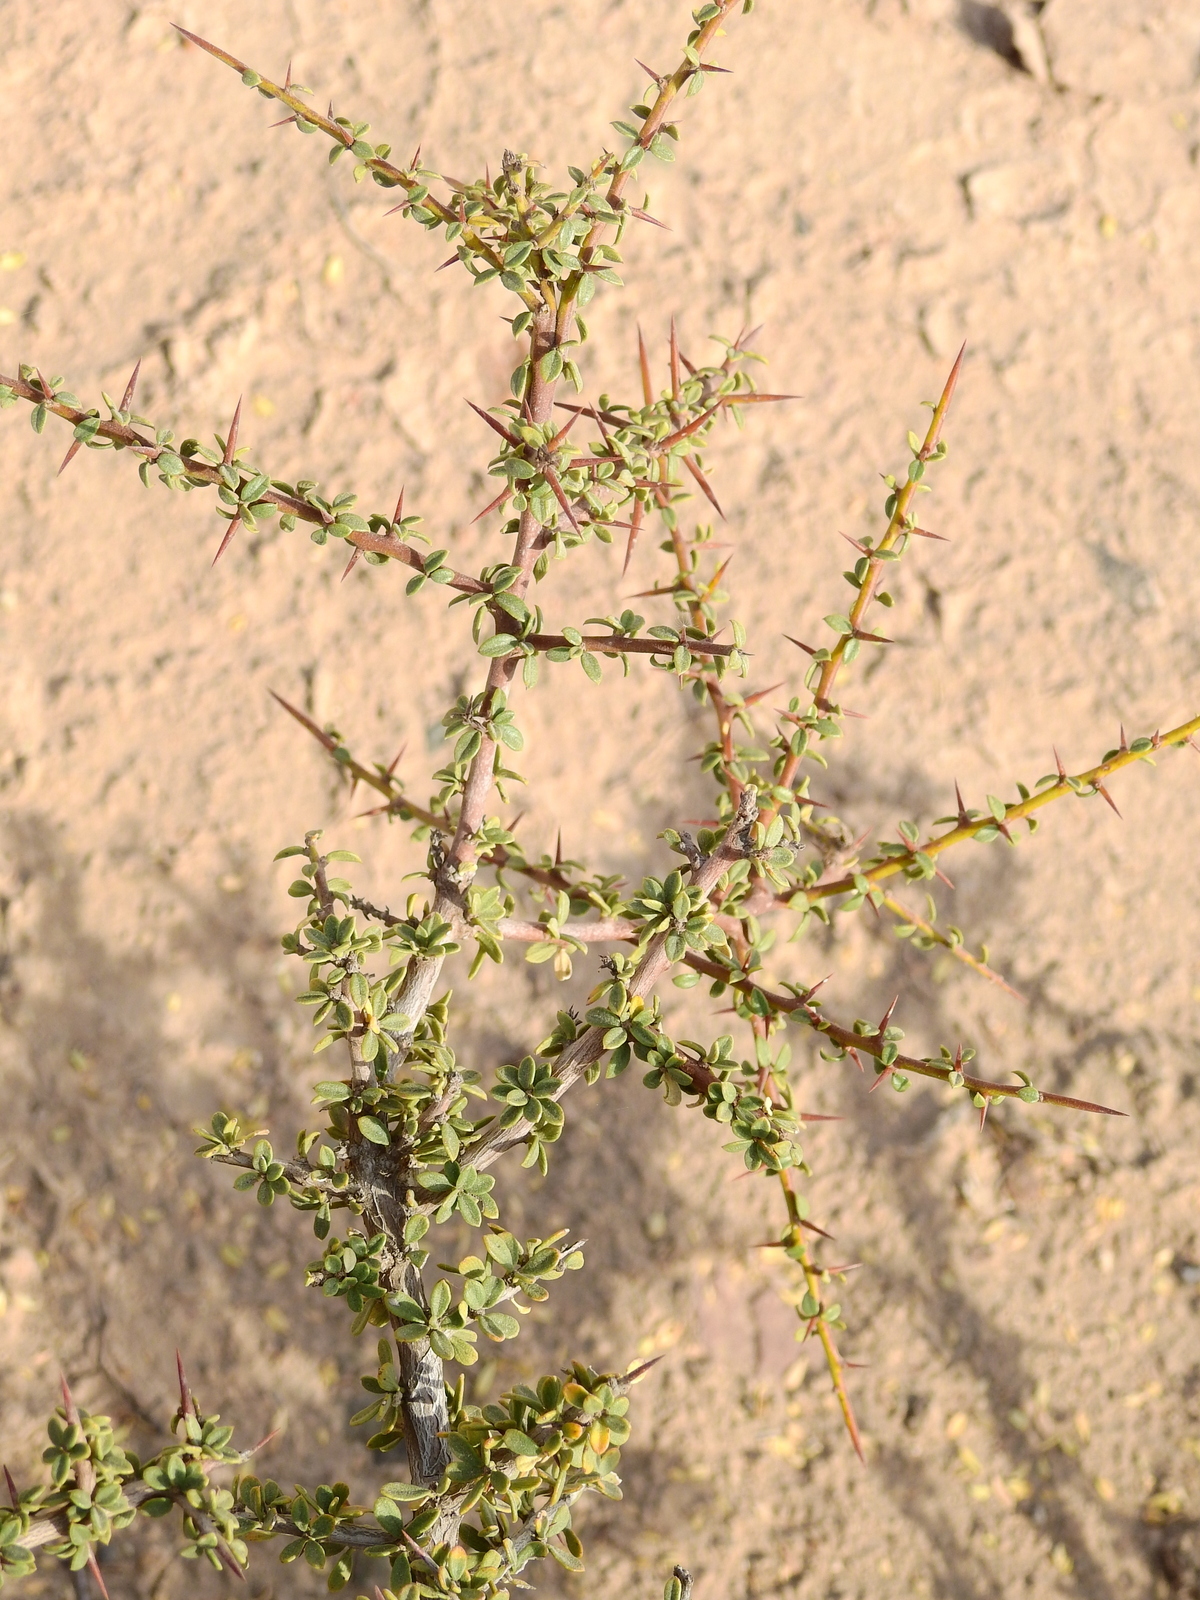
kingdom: Plantae
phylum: Tracheophyta
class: Magnoliopsida
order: Rosales
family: Rhamnaceae
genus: Condalia
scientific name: Condalia microphylla
